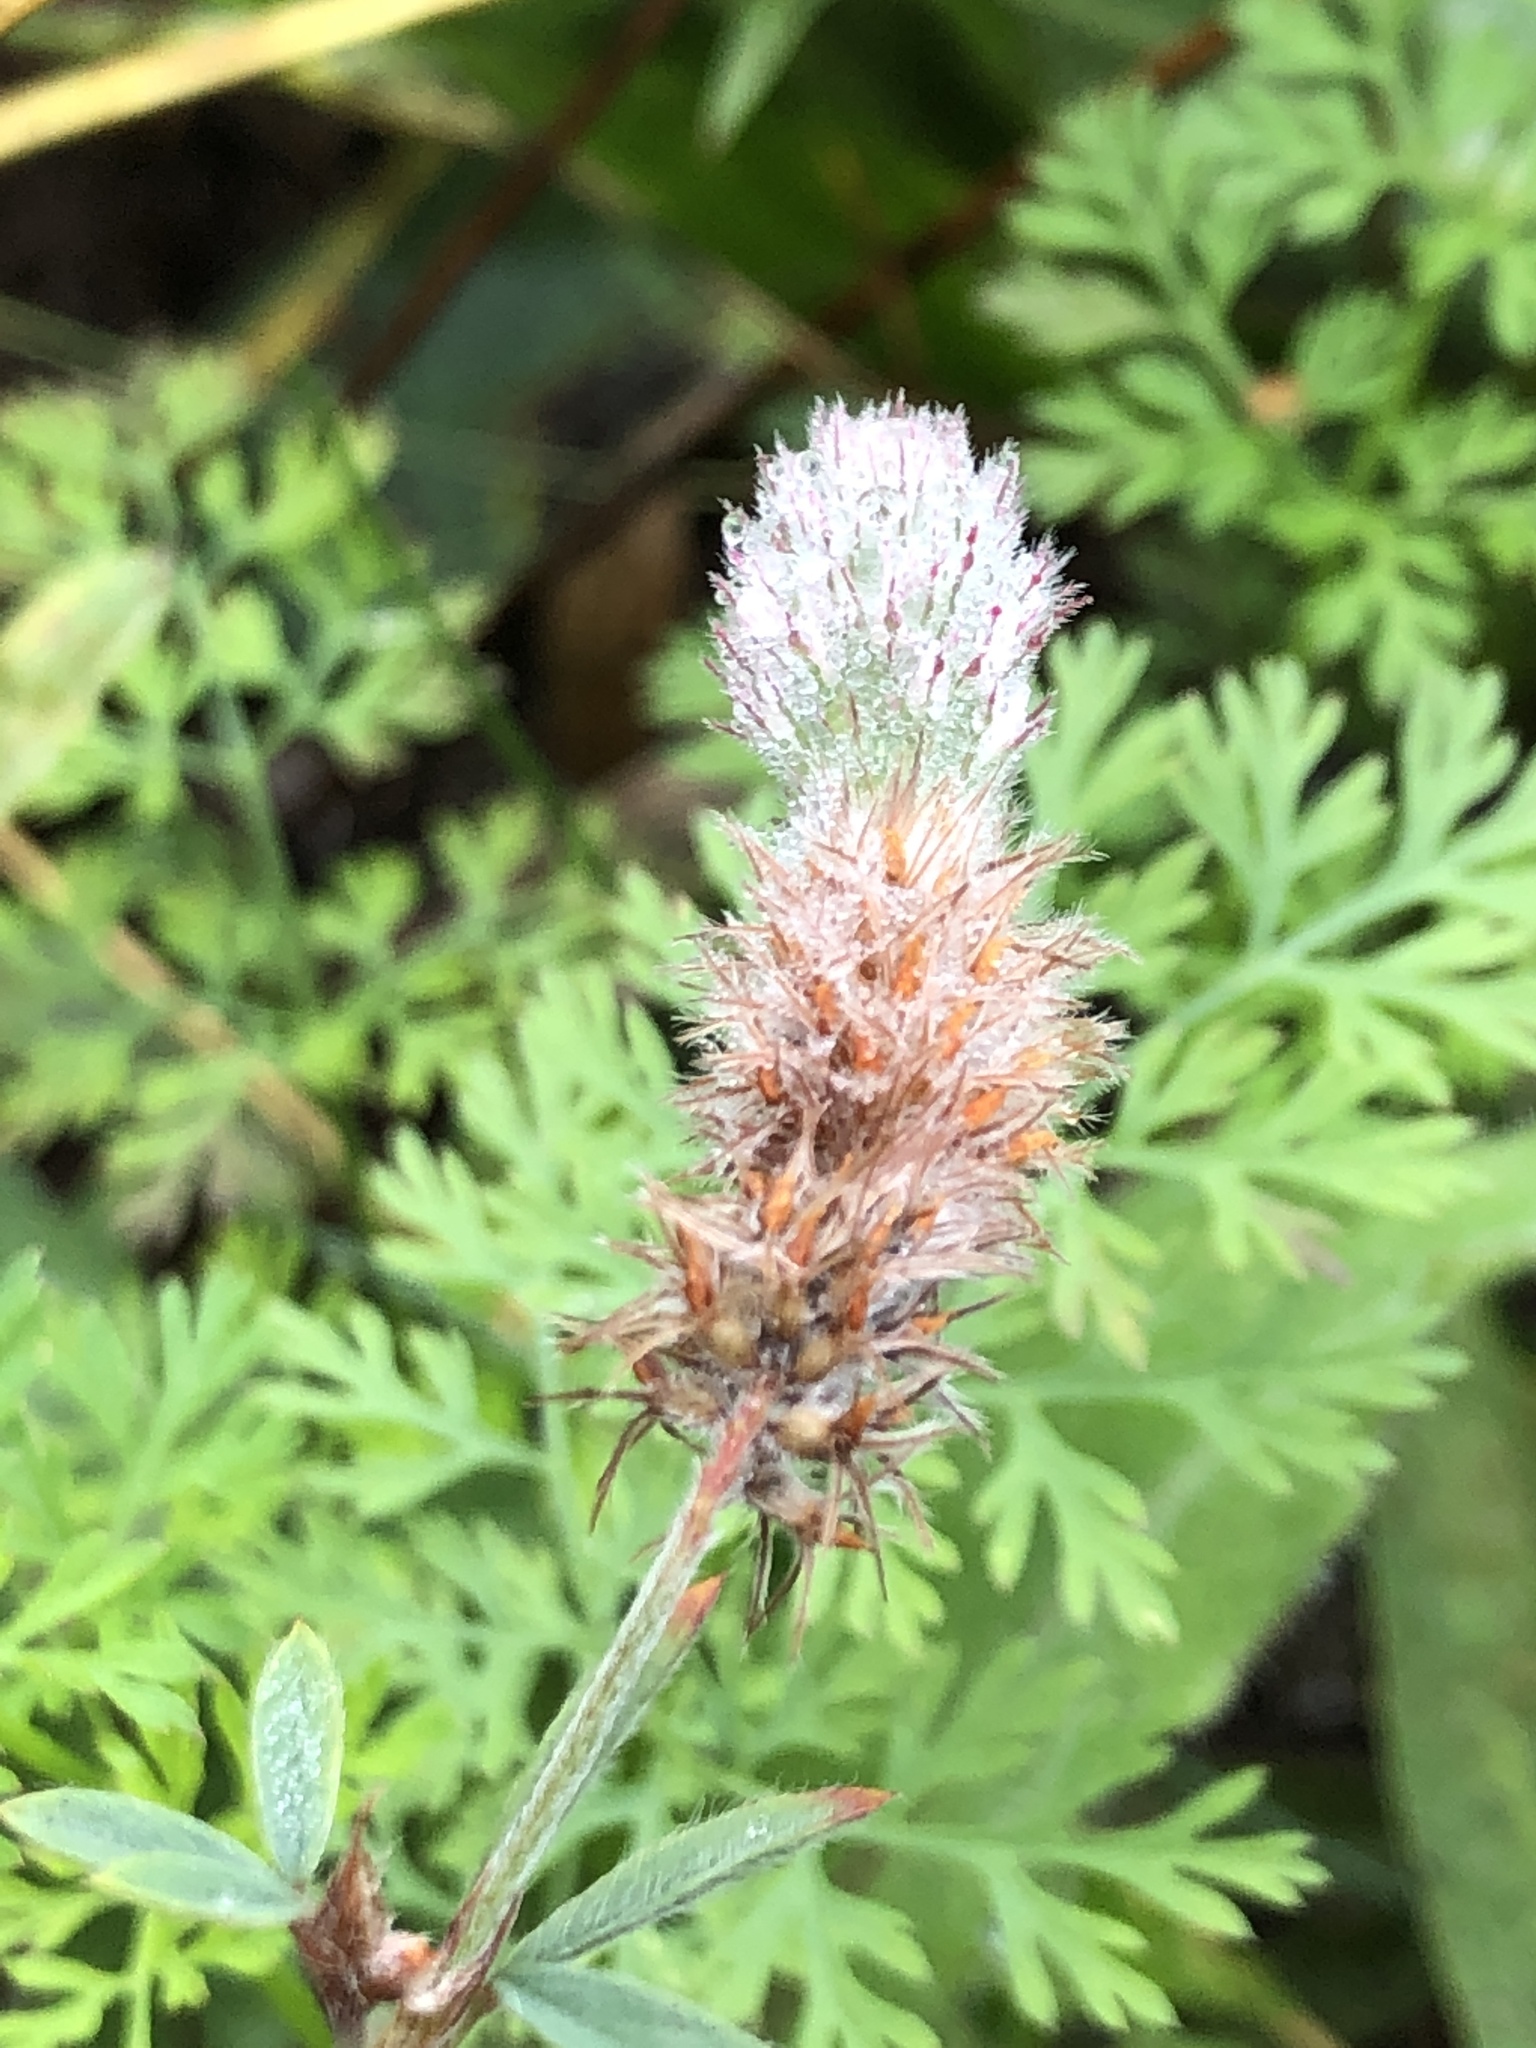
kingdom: Plantae
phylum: Tracheophyta
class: Magnoliopsida
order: Fabales
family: Fabaceae
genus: Trifolium
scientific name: Trifolium arvense
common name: Hare's-foot clover
